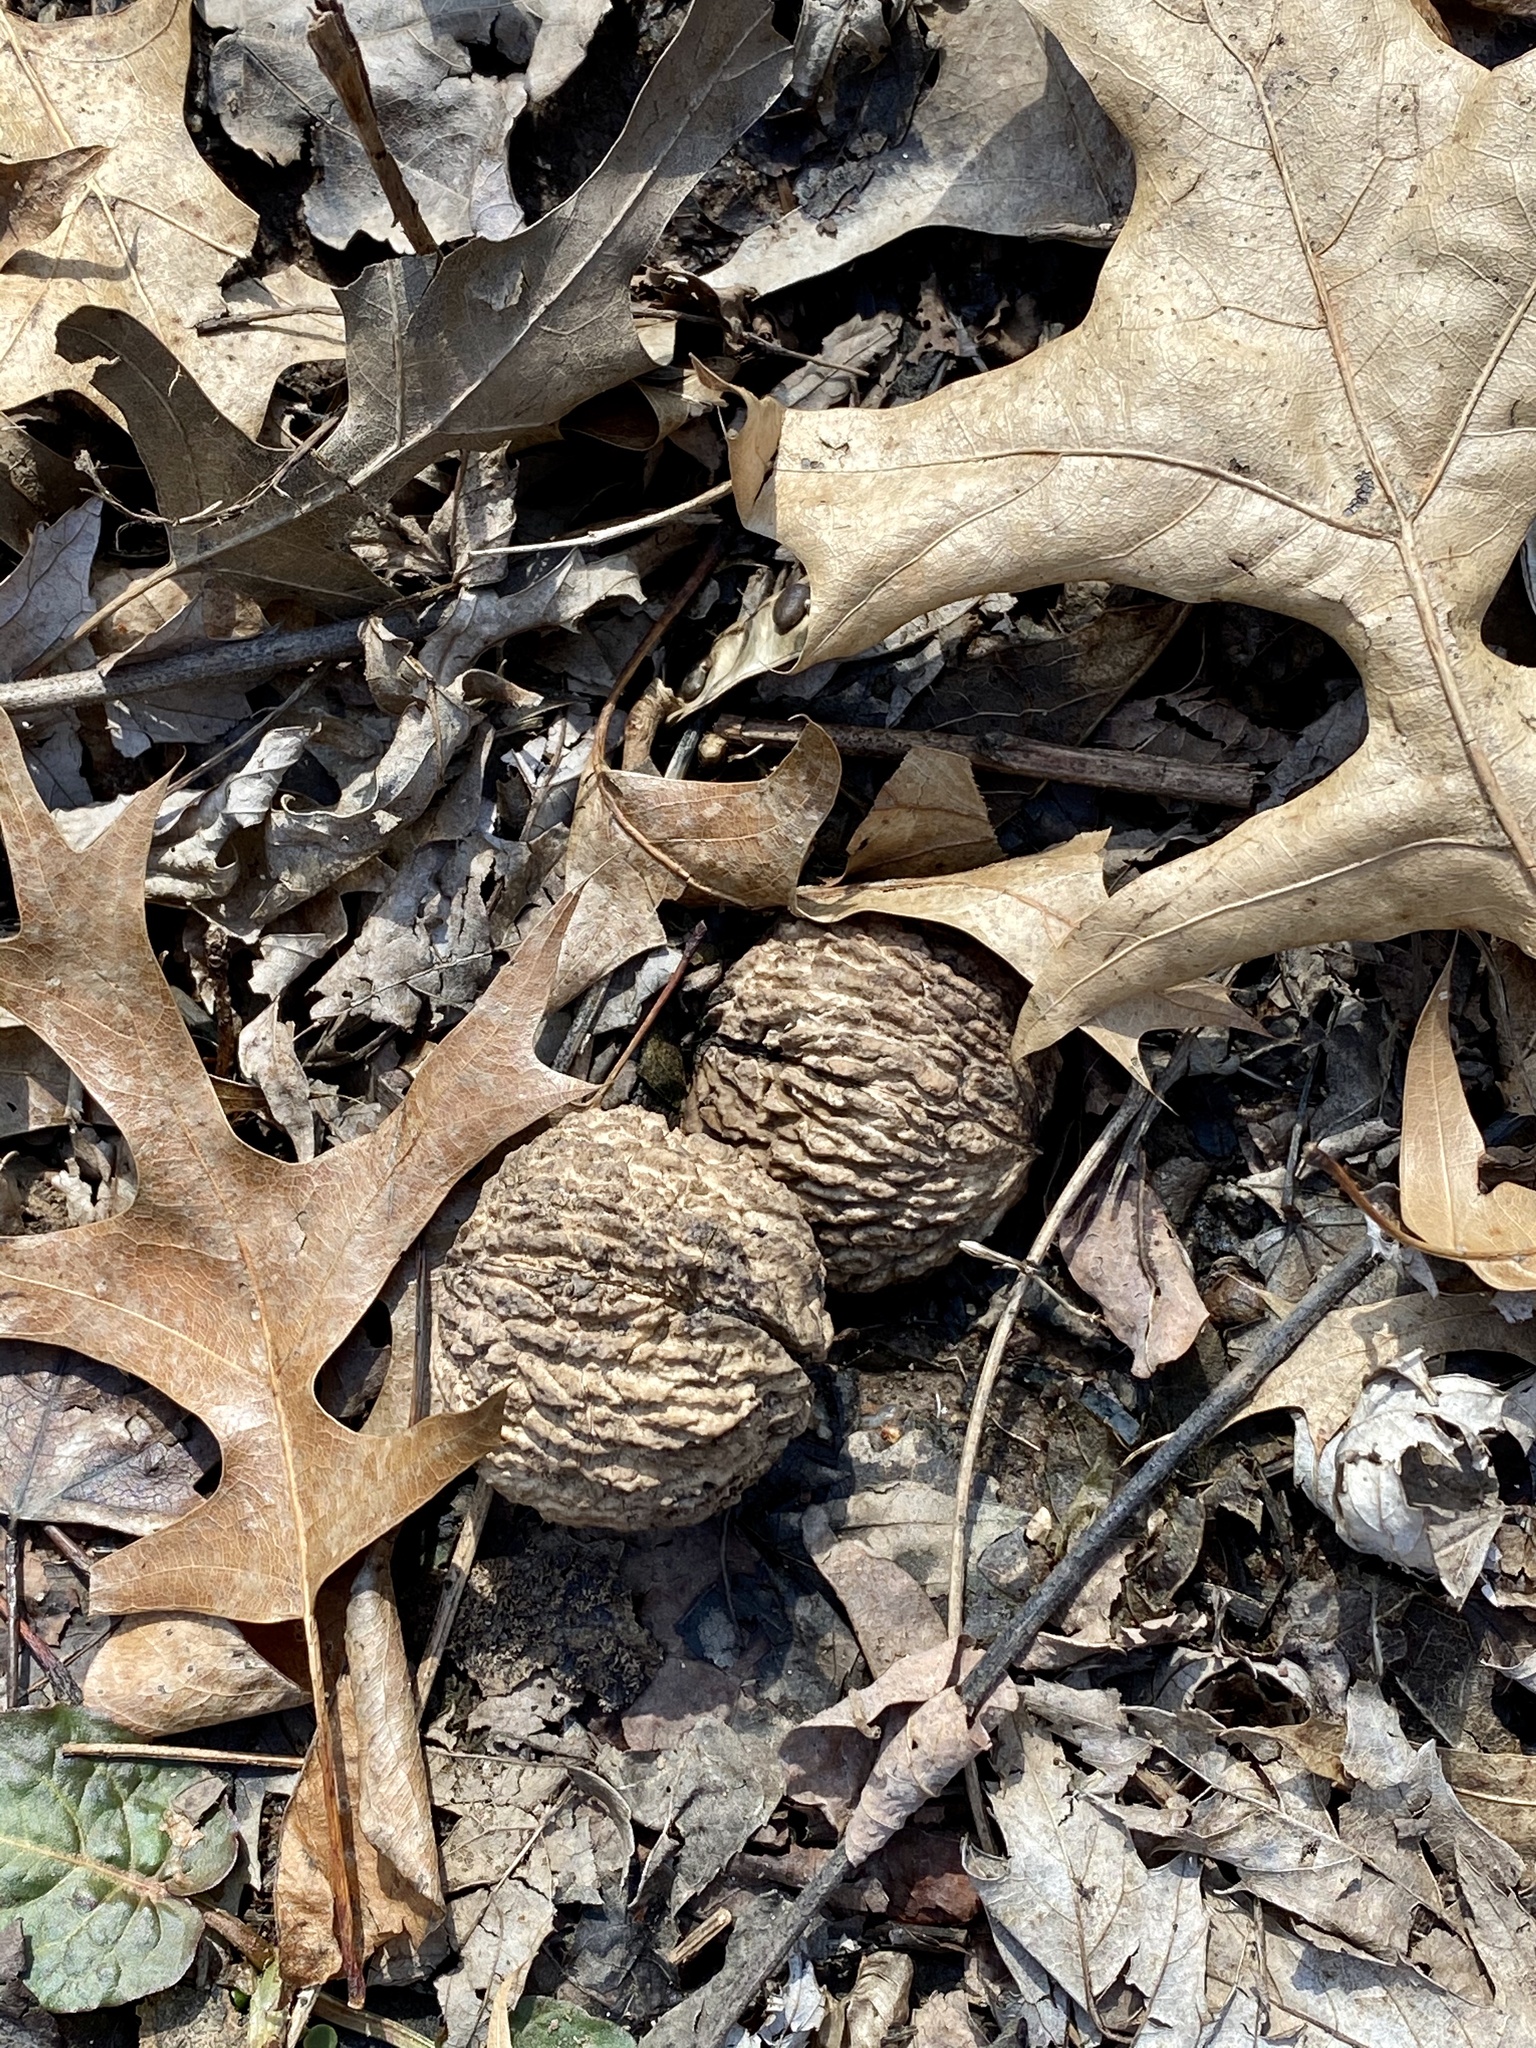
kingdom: Plantae
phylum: Tracheophyta
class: Magnoliopsida
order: Fagales
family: Juglandaceae
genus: Juglans
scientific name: Juglans nigra
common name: Black walnut
